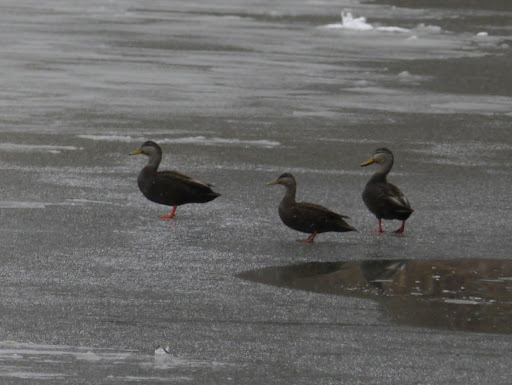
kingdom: Animalia
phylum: Chordata
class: Aves
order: Anseriformes
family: Anatidae
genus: Anas
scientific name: Anas rubripes
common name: American black duck
